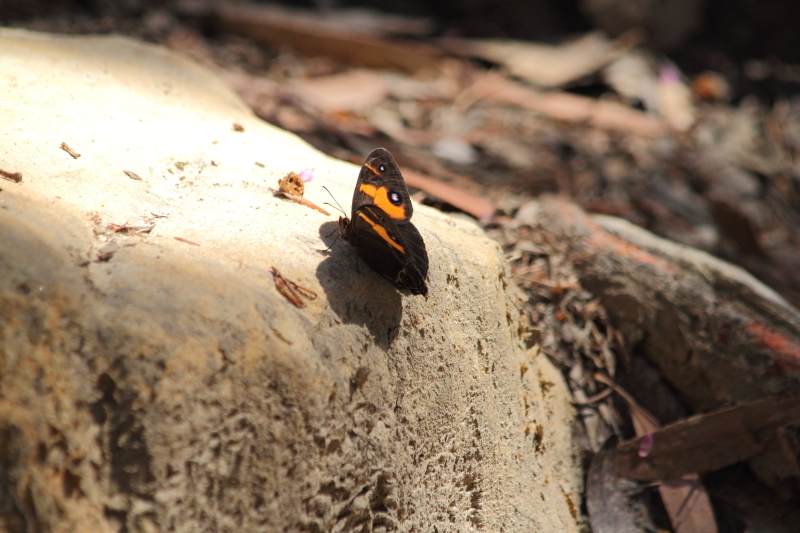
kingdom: Animalia
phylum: Arthropoda
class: Insecta
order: Lepidoptera
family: Nymphalidae
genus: Tisiphone
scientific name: Tisiphone abeona
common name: Swordgrass brown
